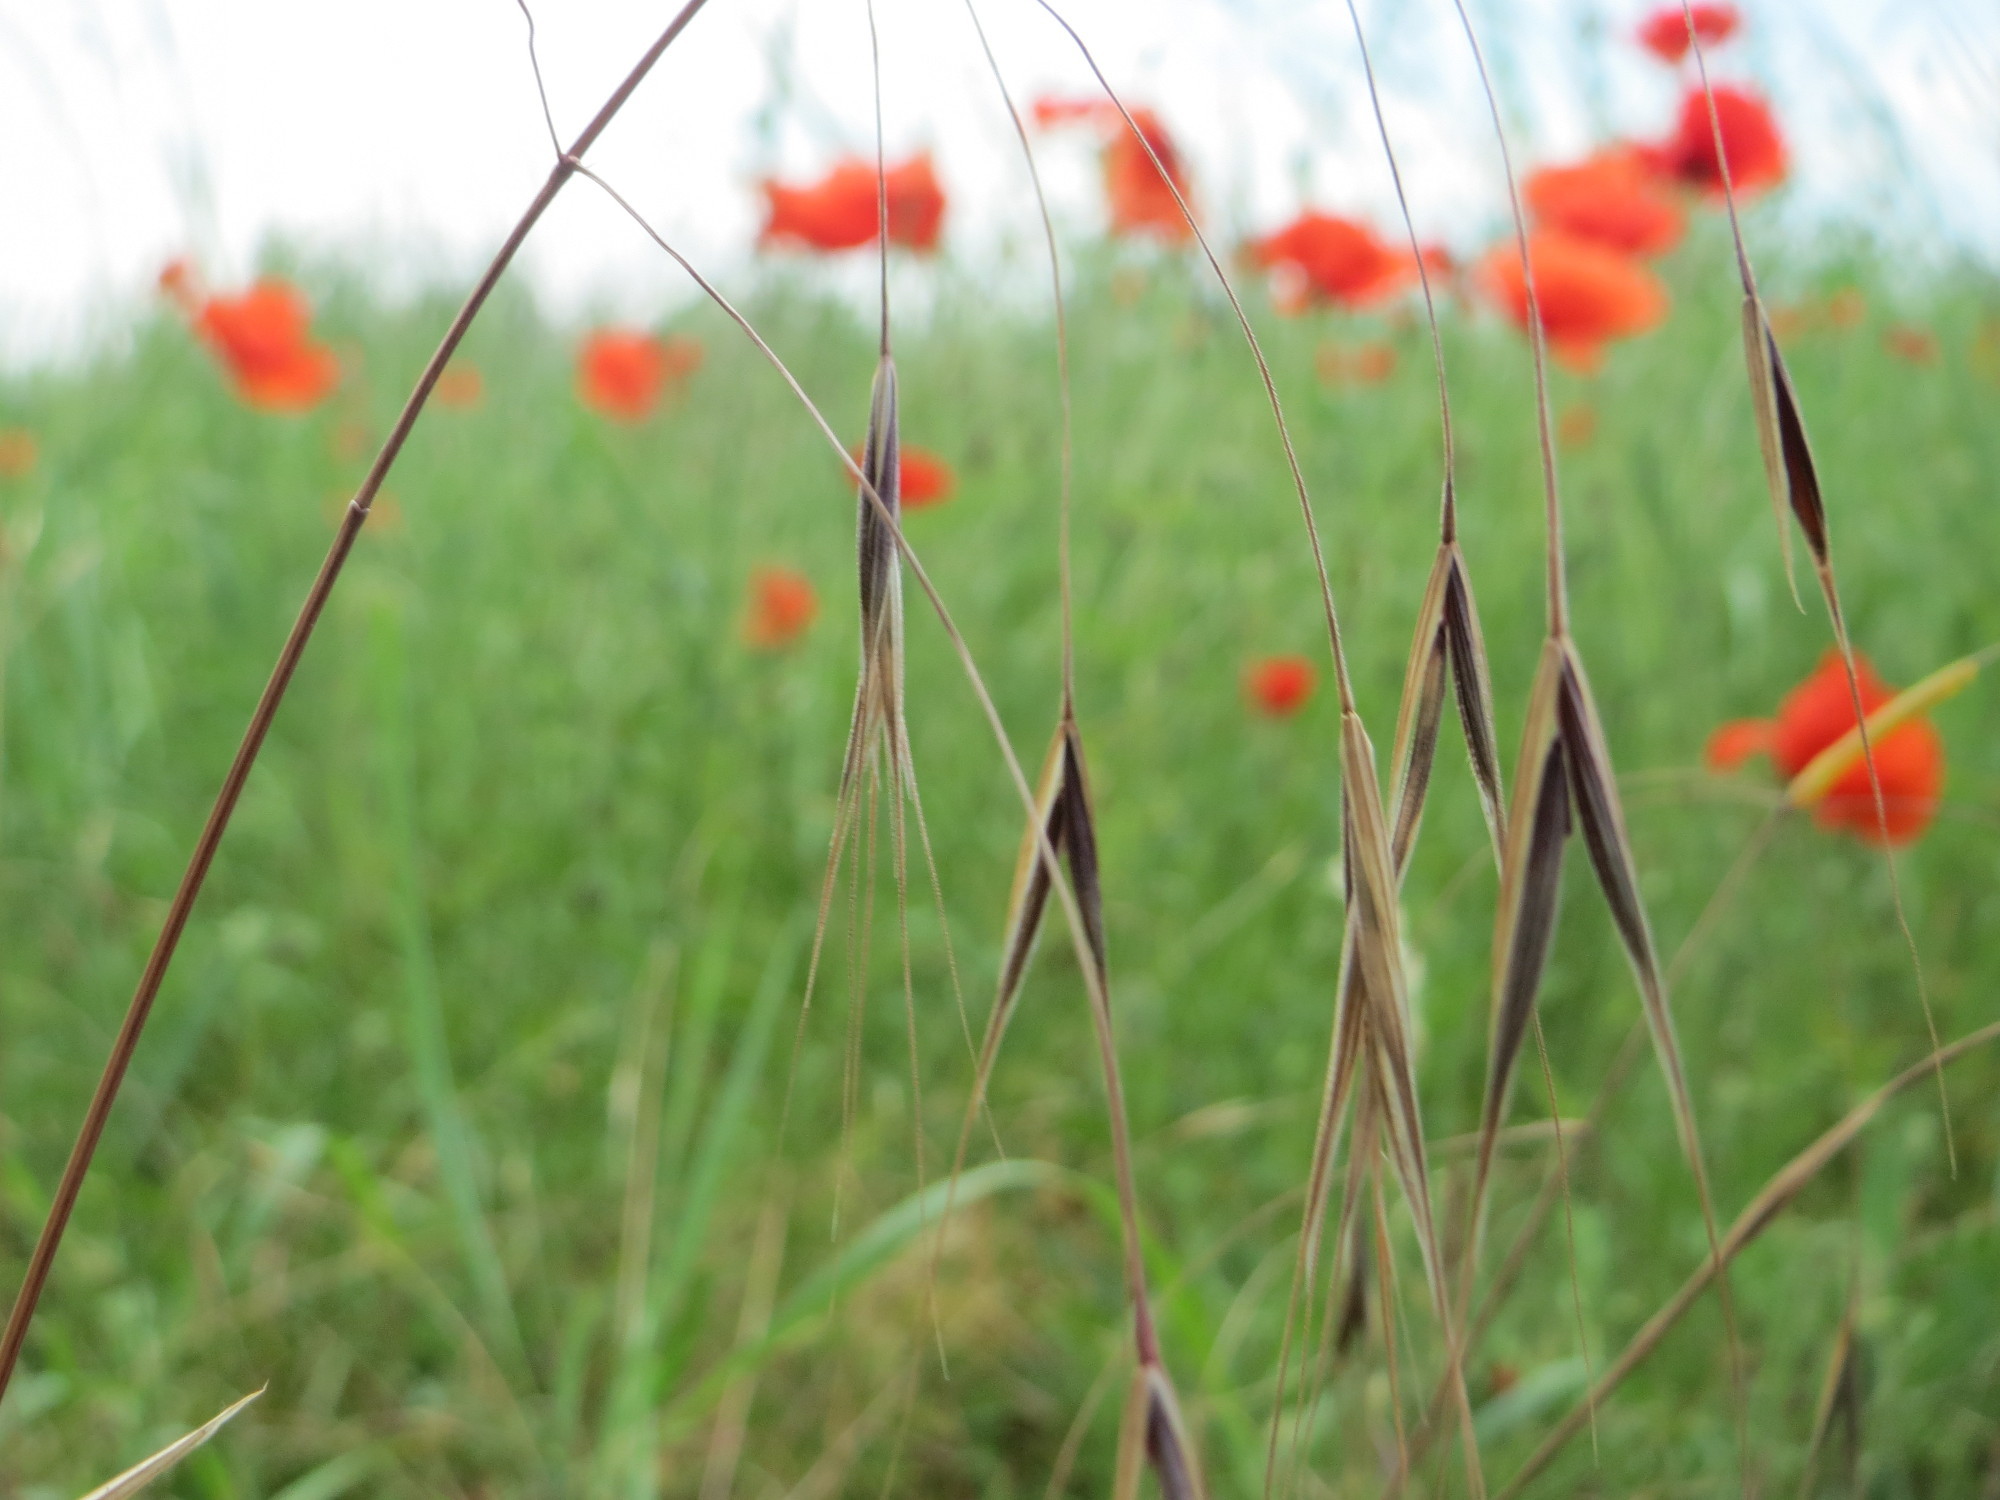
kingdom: Plantae
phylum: Tracheophyta
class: Liliopsida
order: Poales
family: Poaceae
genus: Bromus
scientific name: Bromus sterilis
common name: Poverty brome
